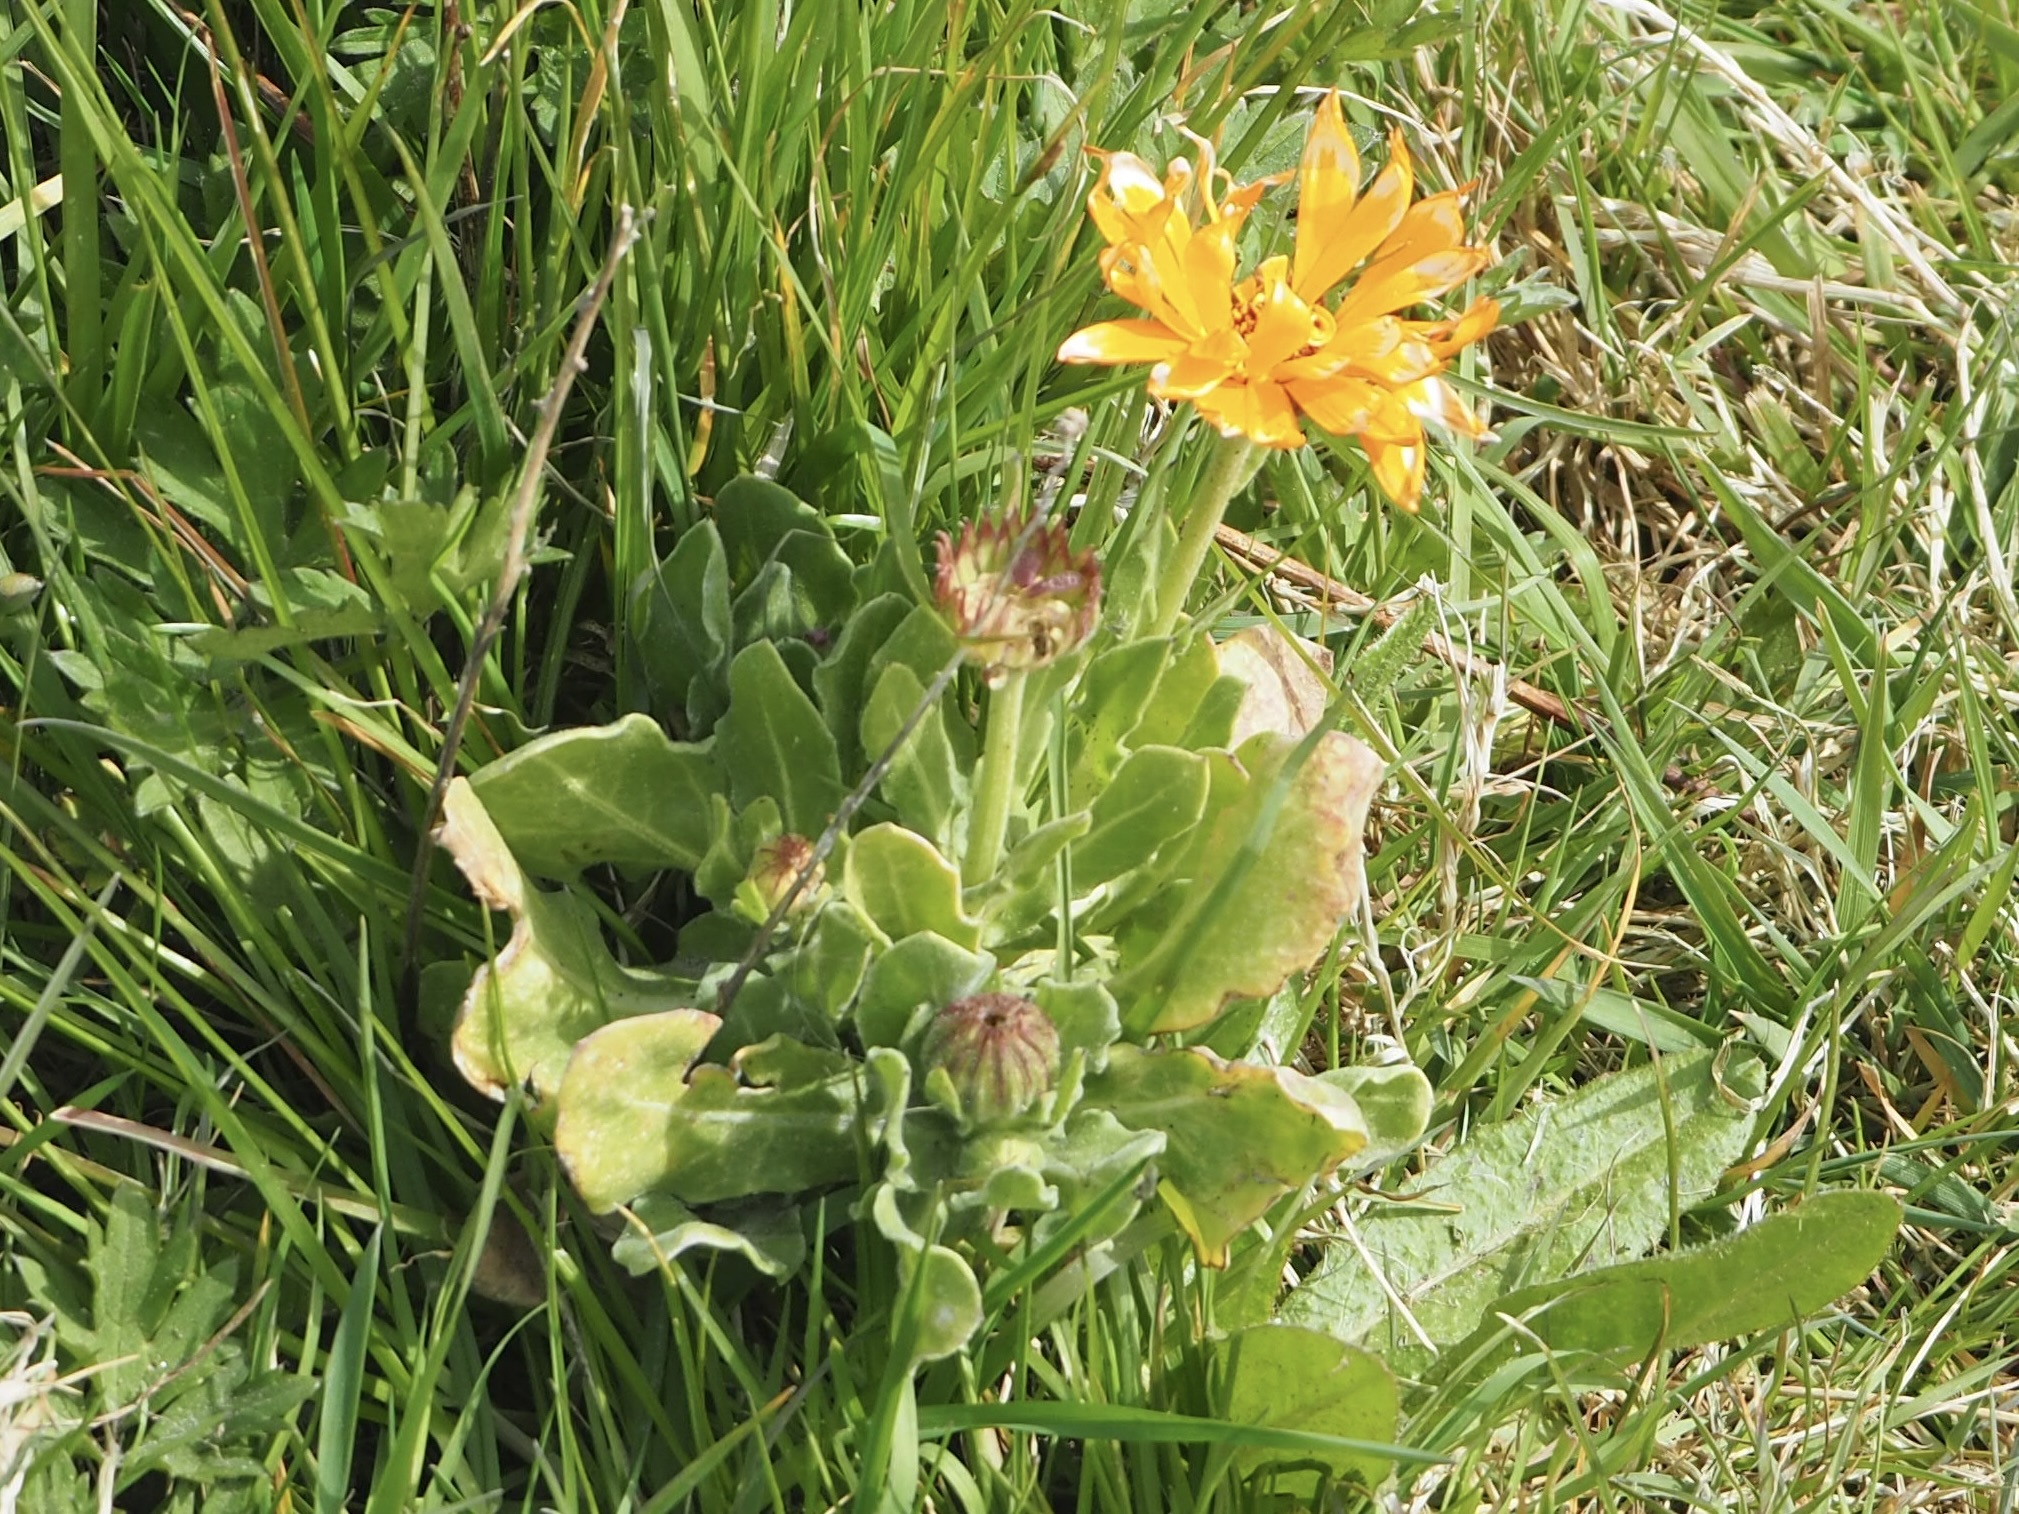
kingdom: Plantae
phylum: Tracheophyta
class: Magnoliopsida
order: Asterales
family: Asteraceae
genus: Calendula
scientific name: Calendula officinalis
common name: Pot marigold
